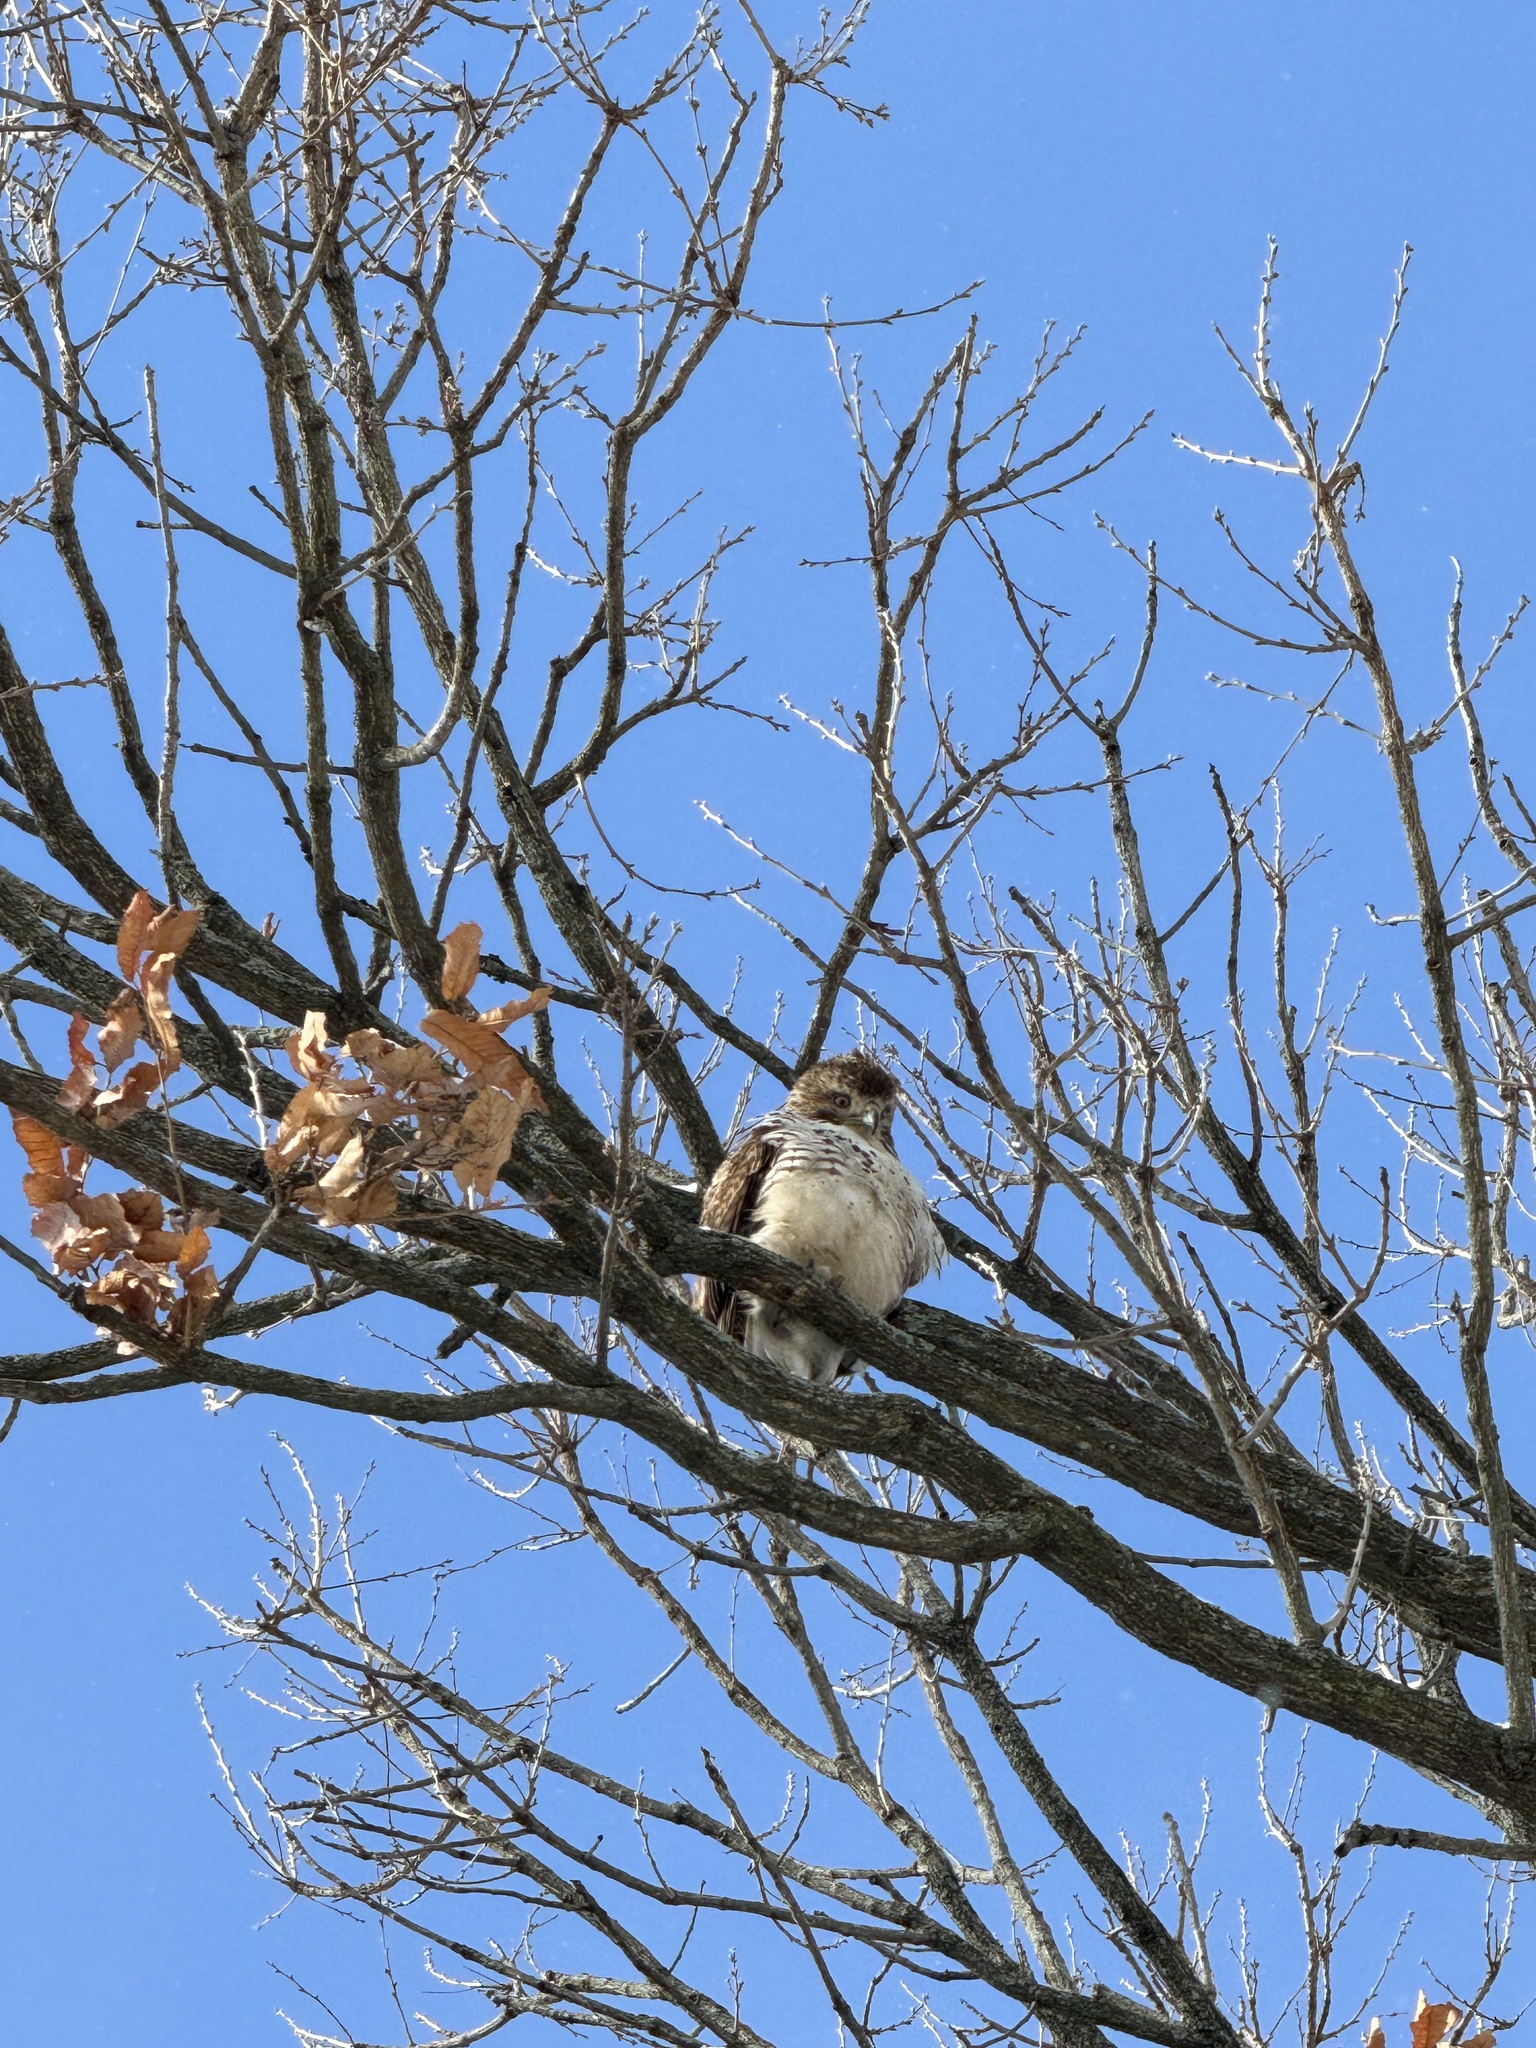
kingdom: Animalia
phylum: Chordata
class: Aves
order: Accipitriformes
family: Accipitridae
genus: Buteo
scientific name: Buteo jamaicensis
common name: Red-tailed hawk
